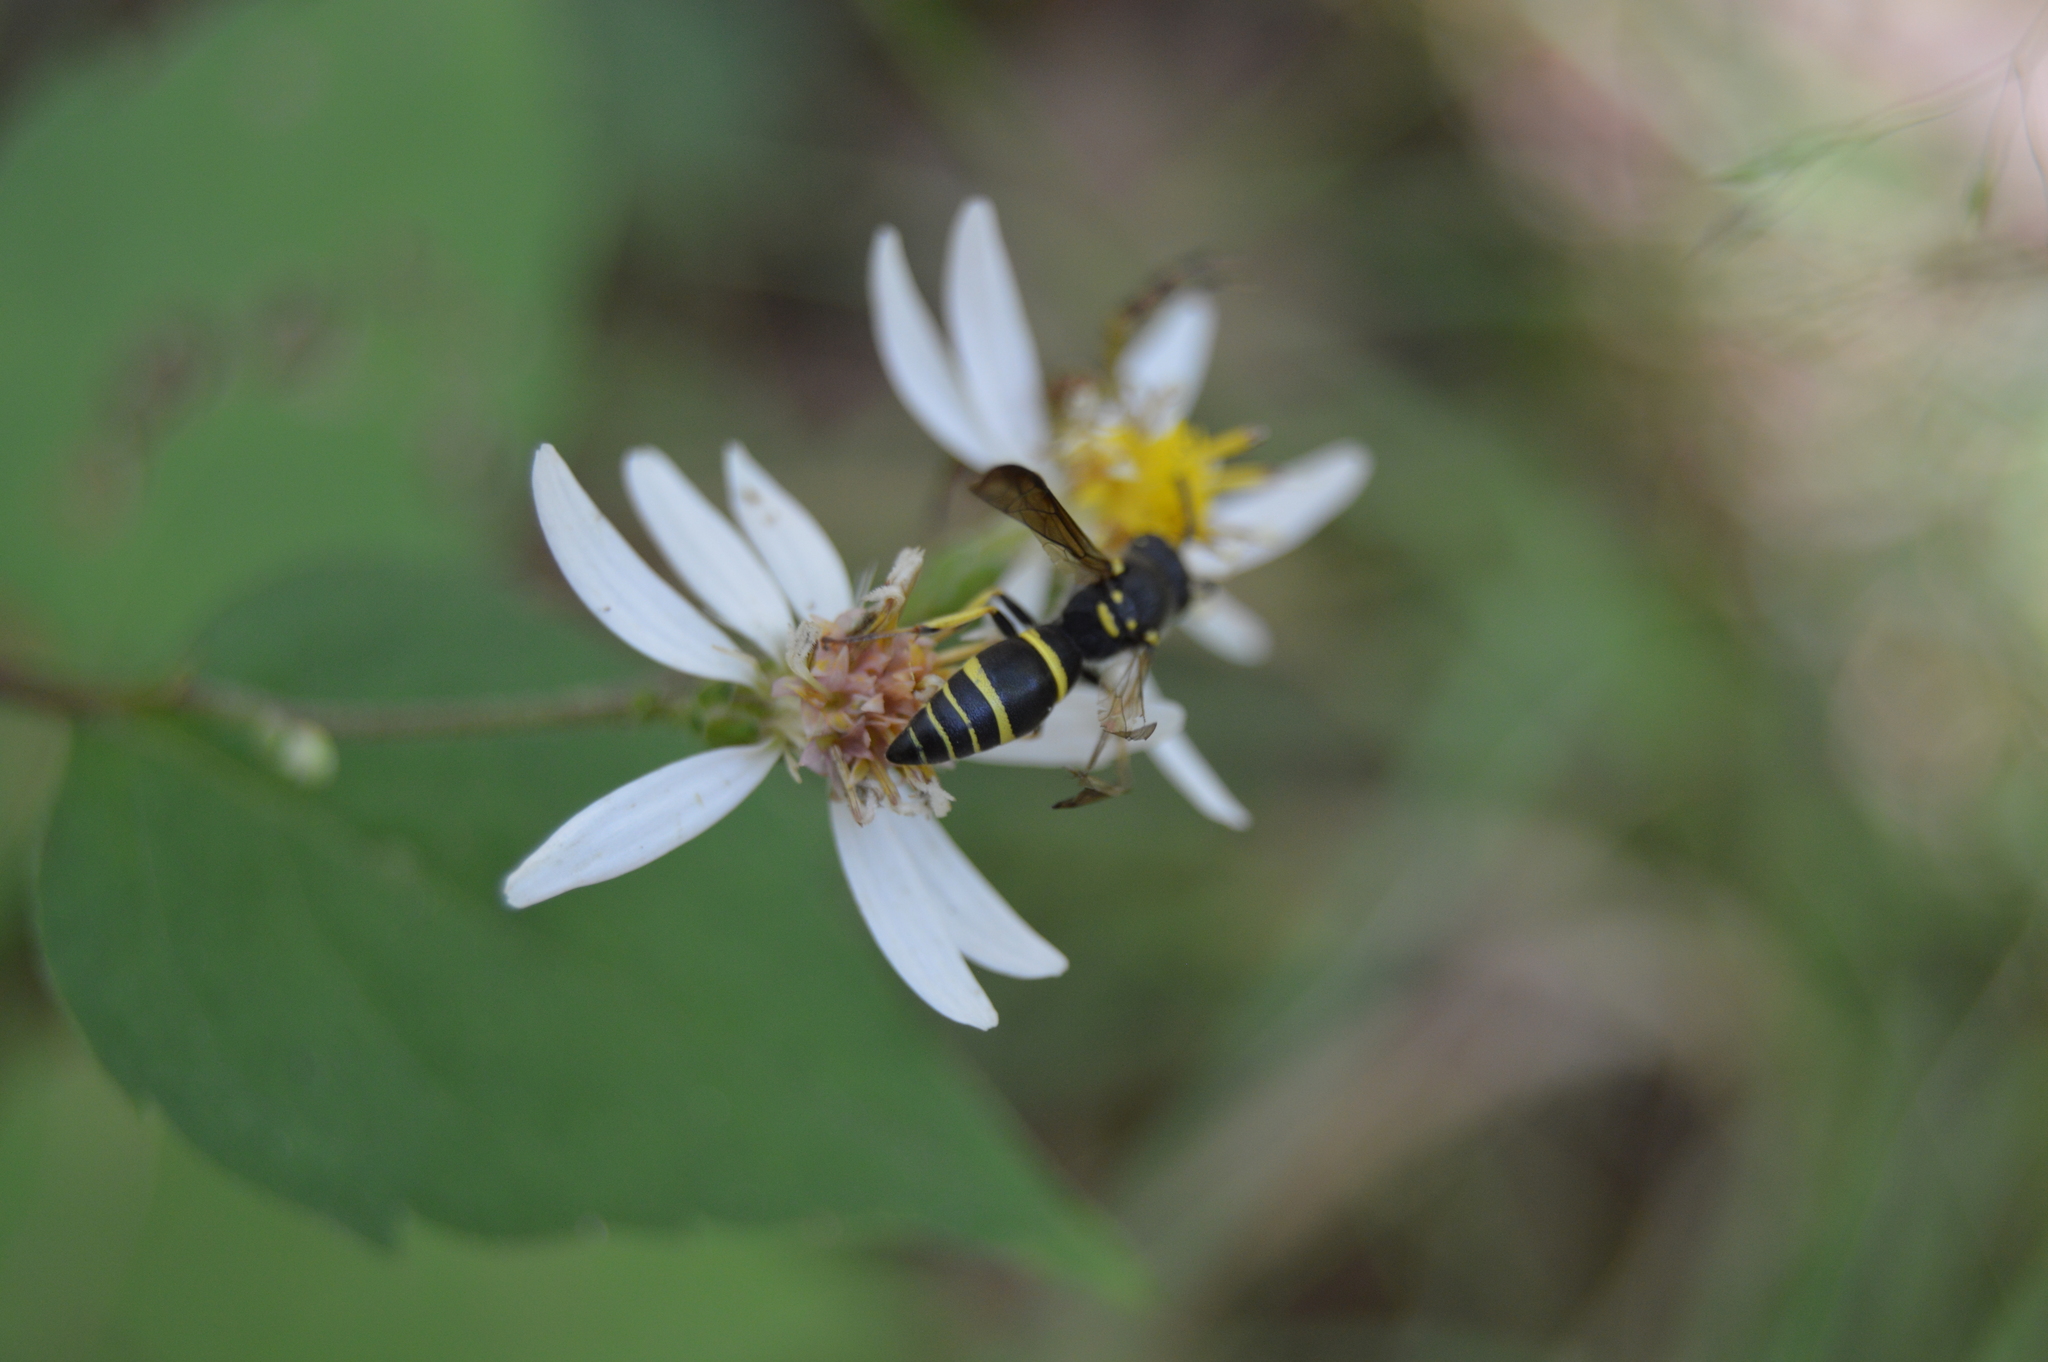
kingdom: Animalia
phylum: Arthropoda
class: Insecta
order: Hymenoptera
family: Vespidae
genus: Ancistrocerus
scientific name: Ancistrocerus adiabatus
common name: Bramble mason wasp
